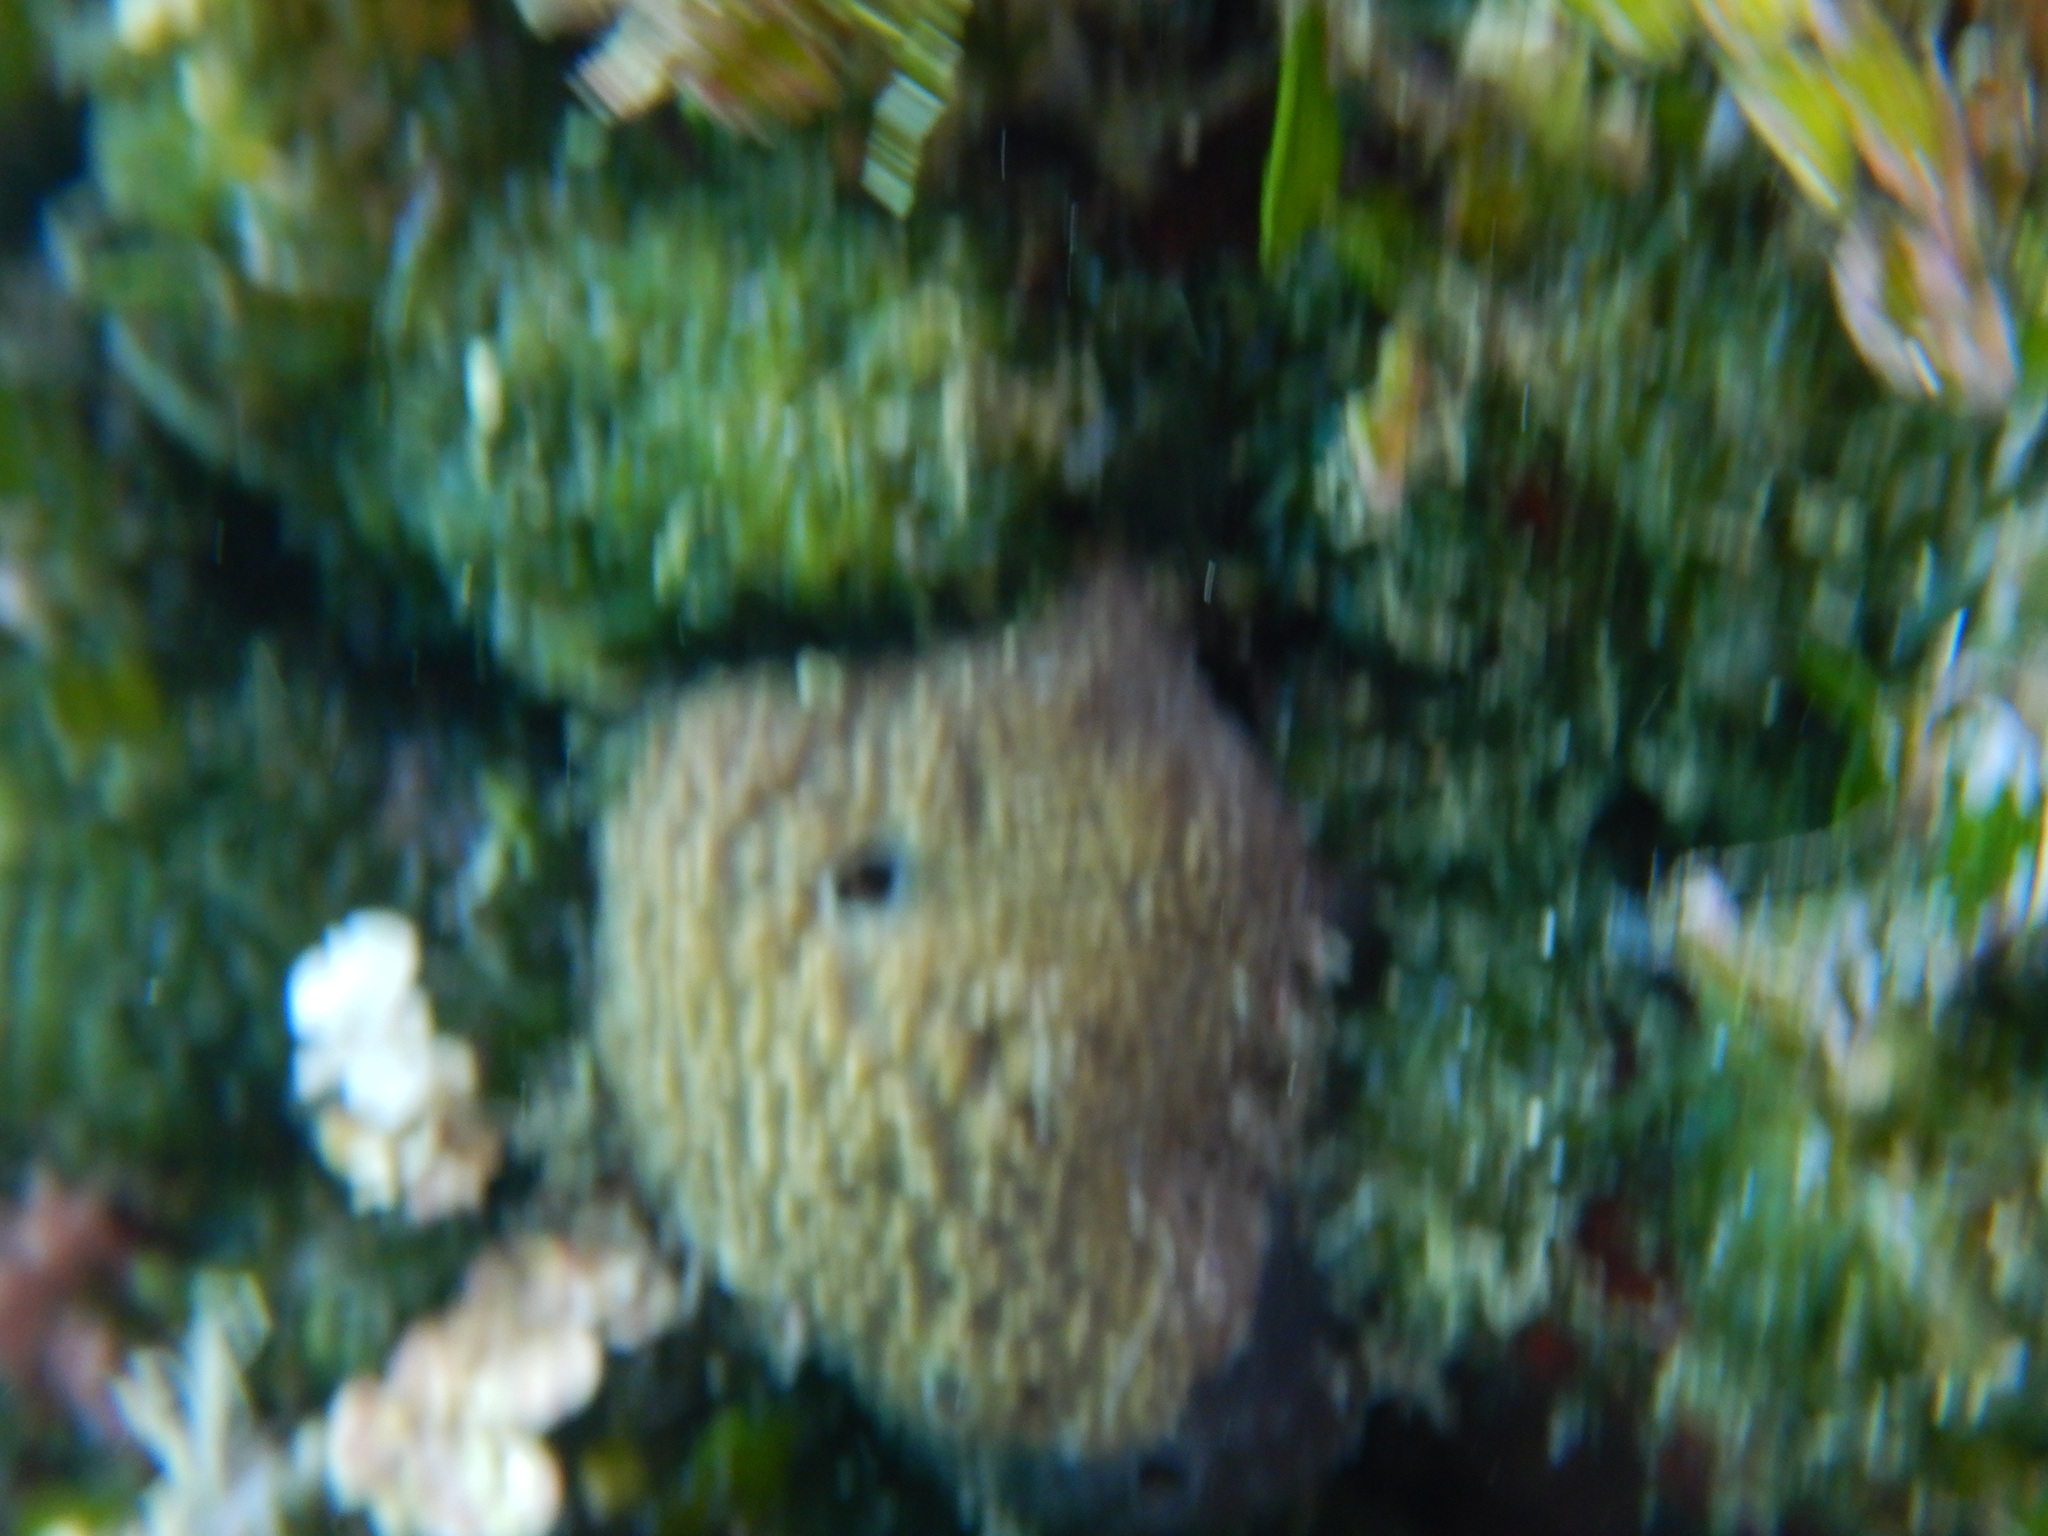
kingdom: Animalia
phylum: Porifera
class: Demospongiae
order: Dictyoceratida
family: Irciniidae
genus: Ircinia
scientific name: Ircinia variabilis
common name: Variable loggerhead sponge
